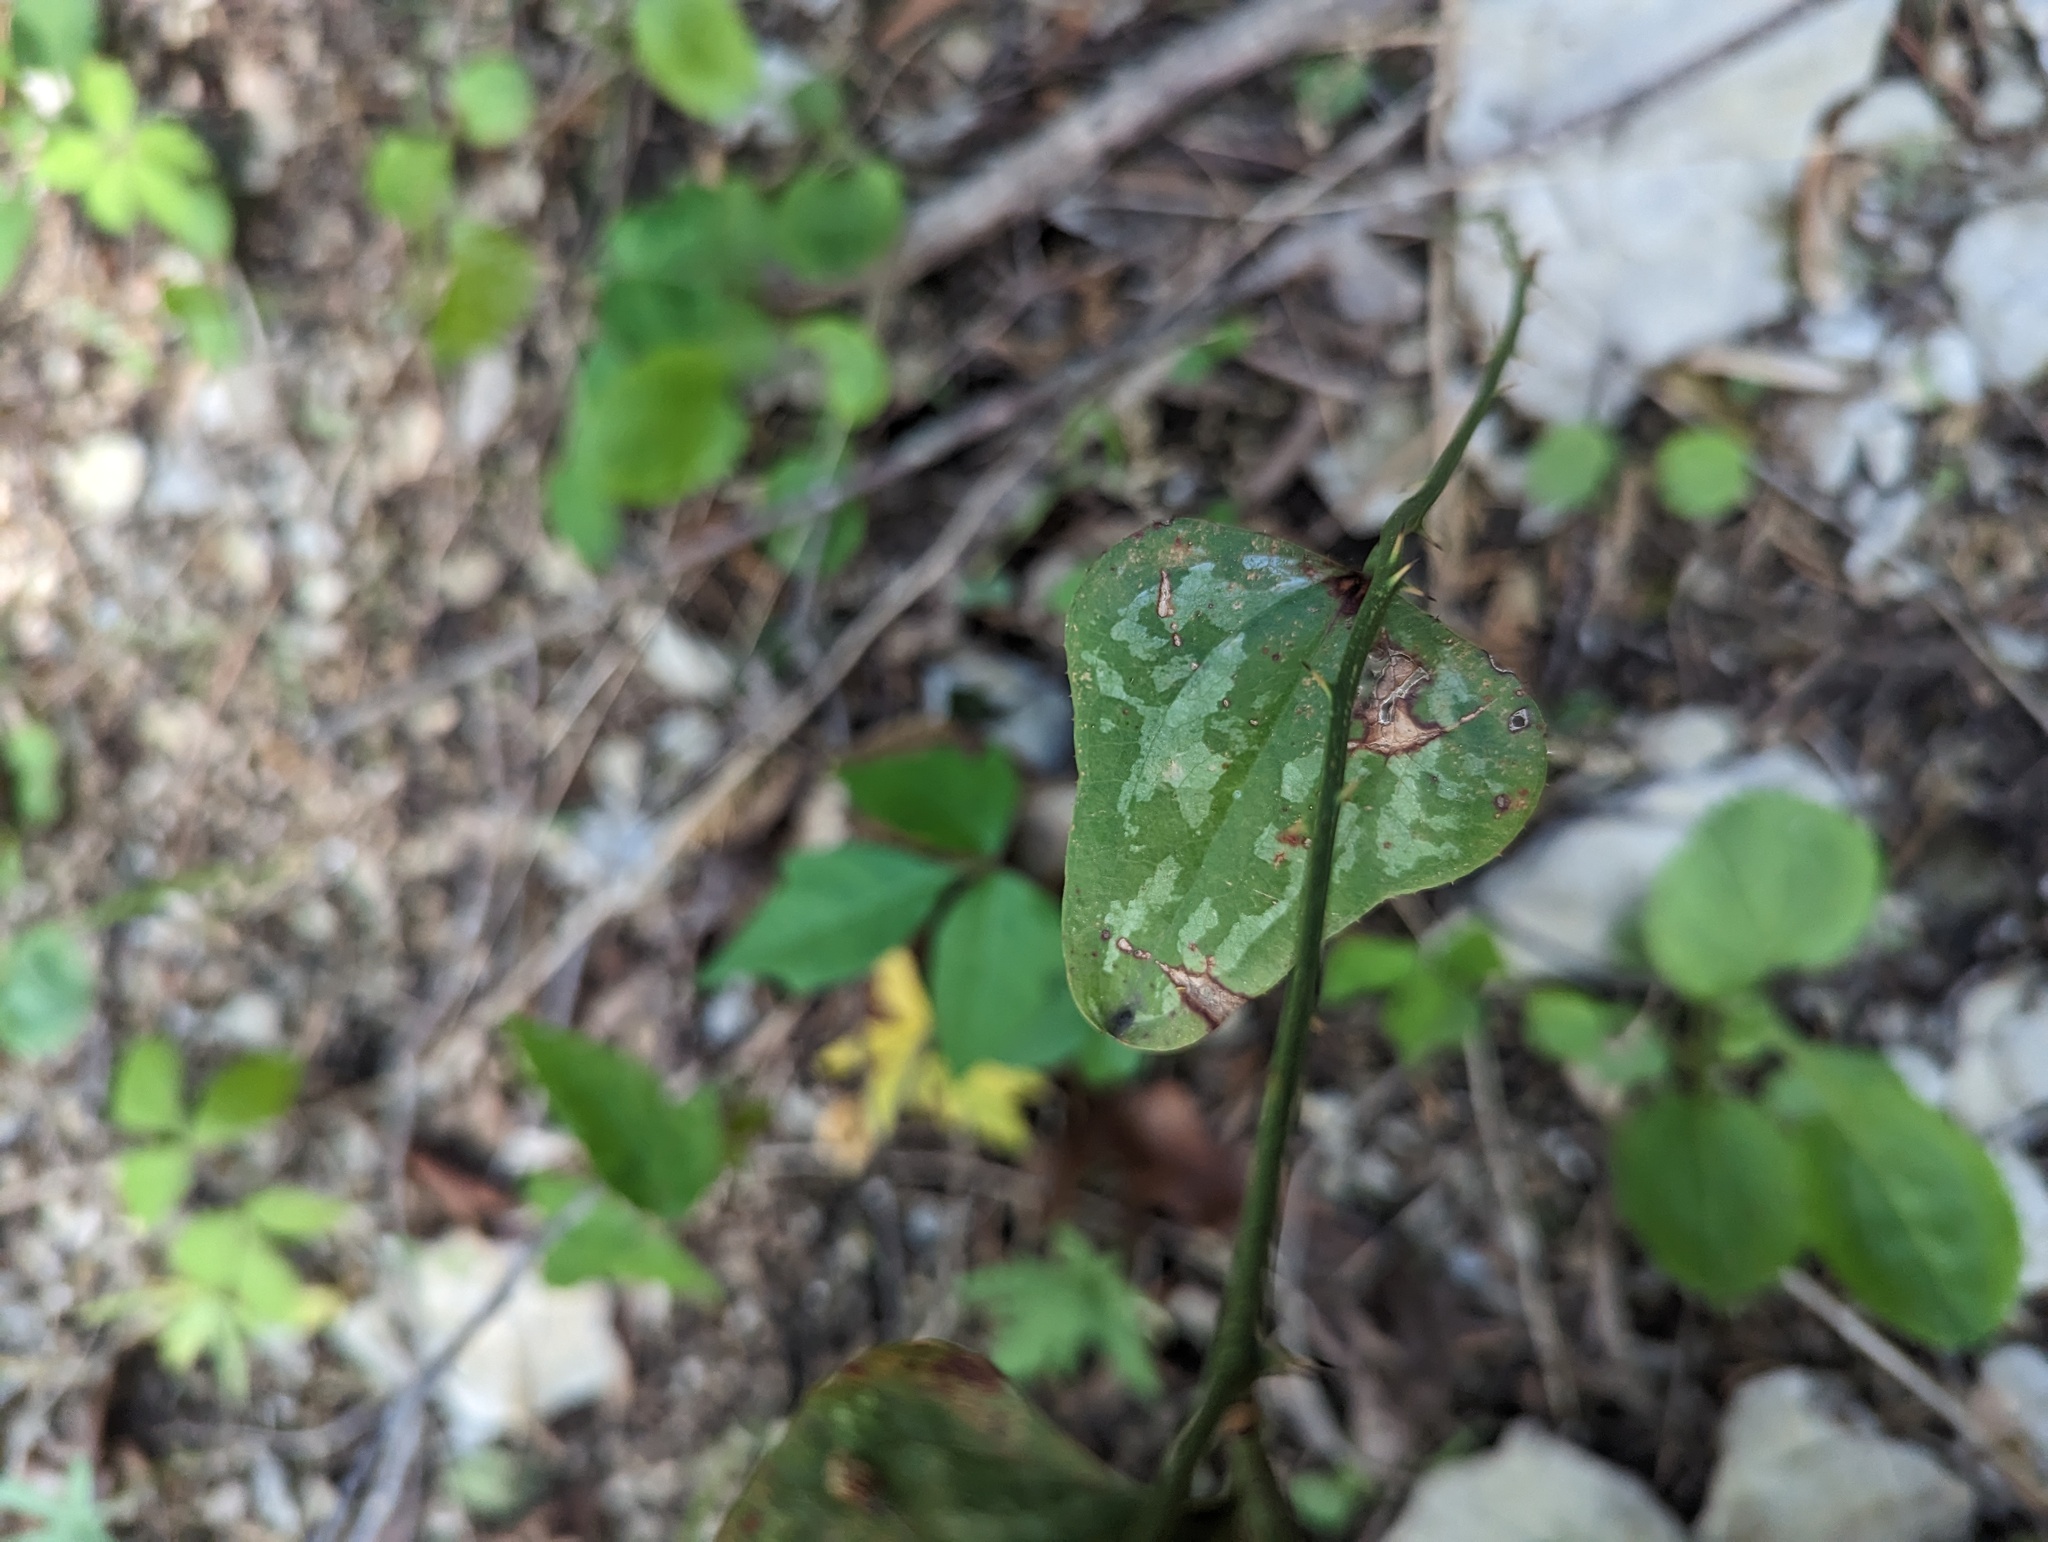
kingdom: Plantae
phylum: Tracheophyta
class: Liliopsida
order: Liliales
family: Smilacaceae
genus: Smilax
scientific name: Smilax bona-nox
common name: Catbrier
